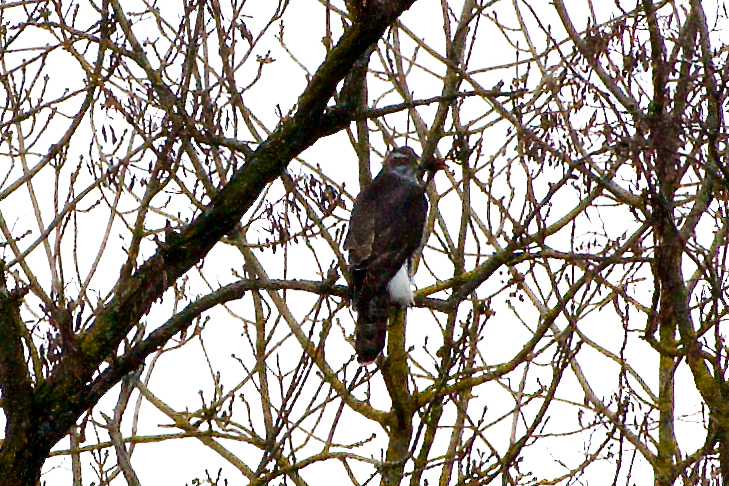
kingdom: Animalia
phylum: Chordata
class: Aves
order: Accipitriformes
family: Accipitridae
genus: Accipiter
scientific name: Accipiter gentilis
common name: Northern goshawk
